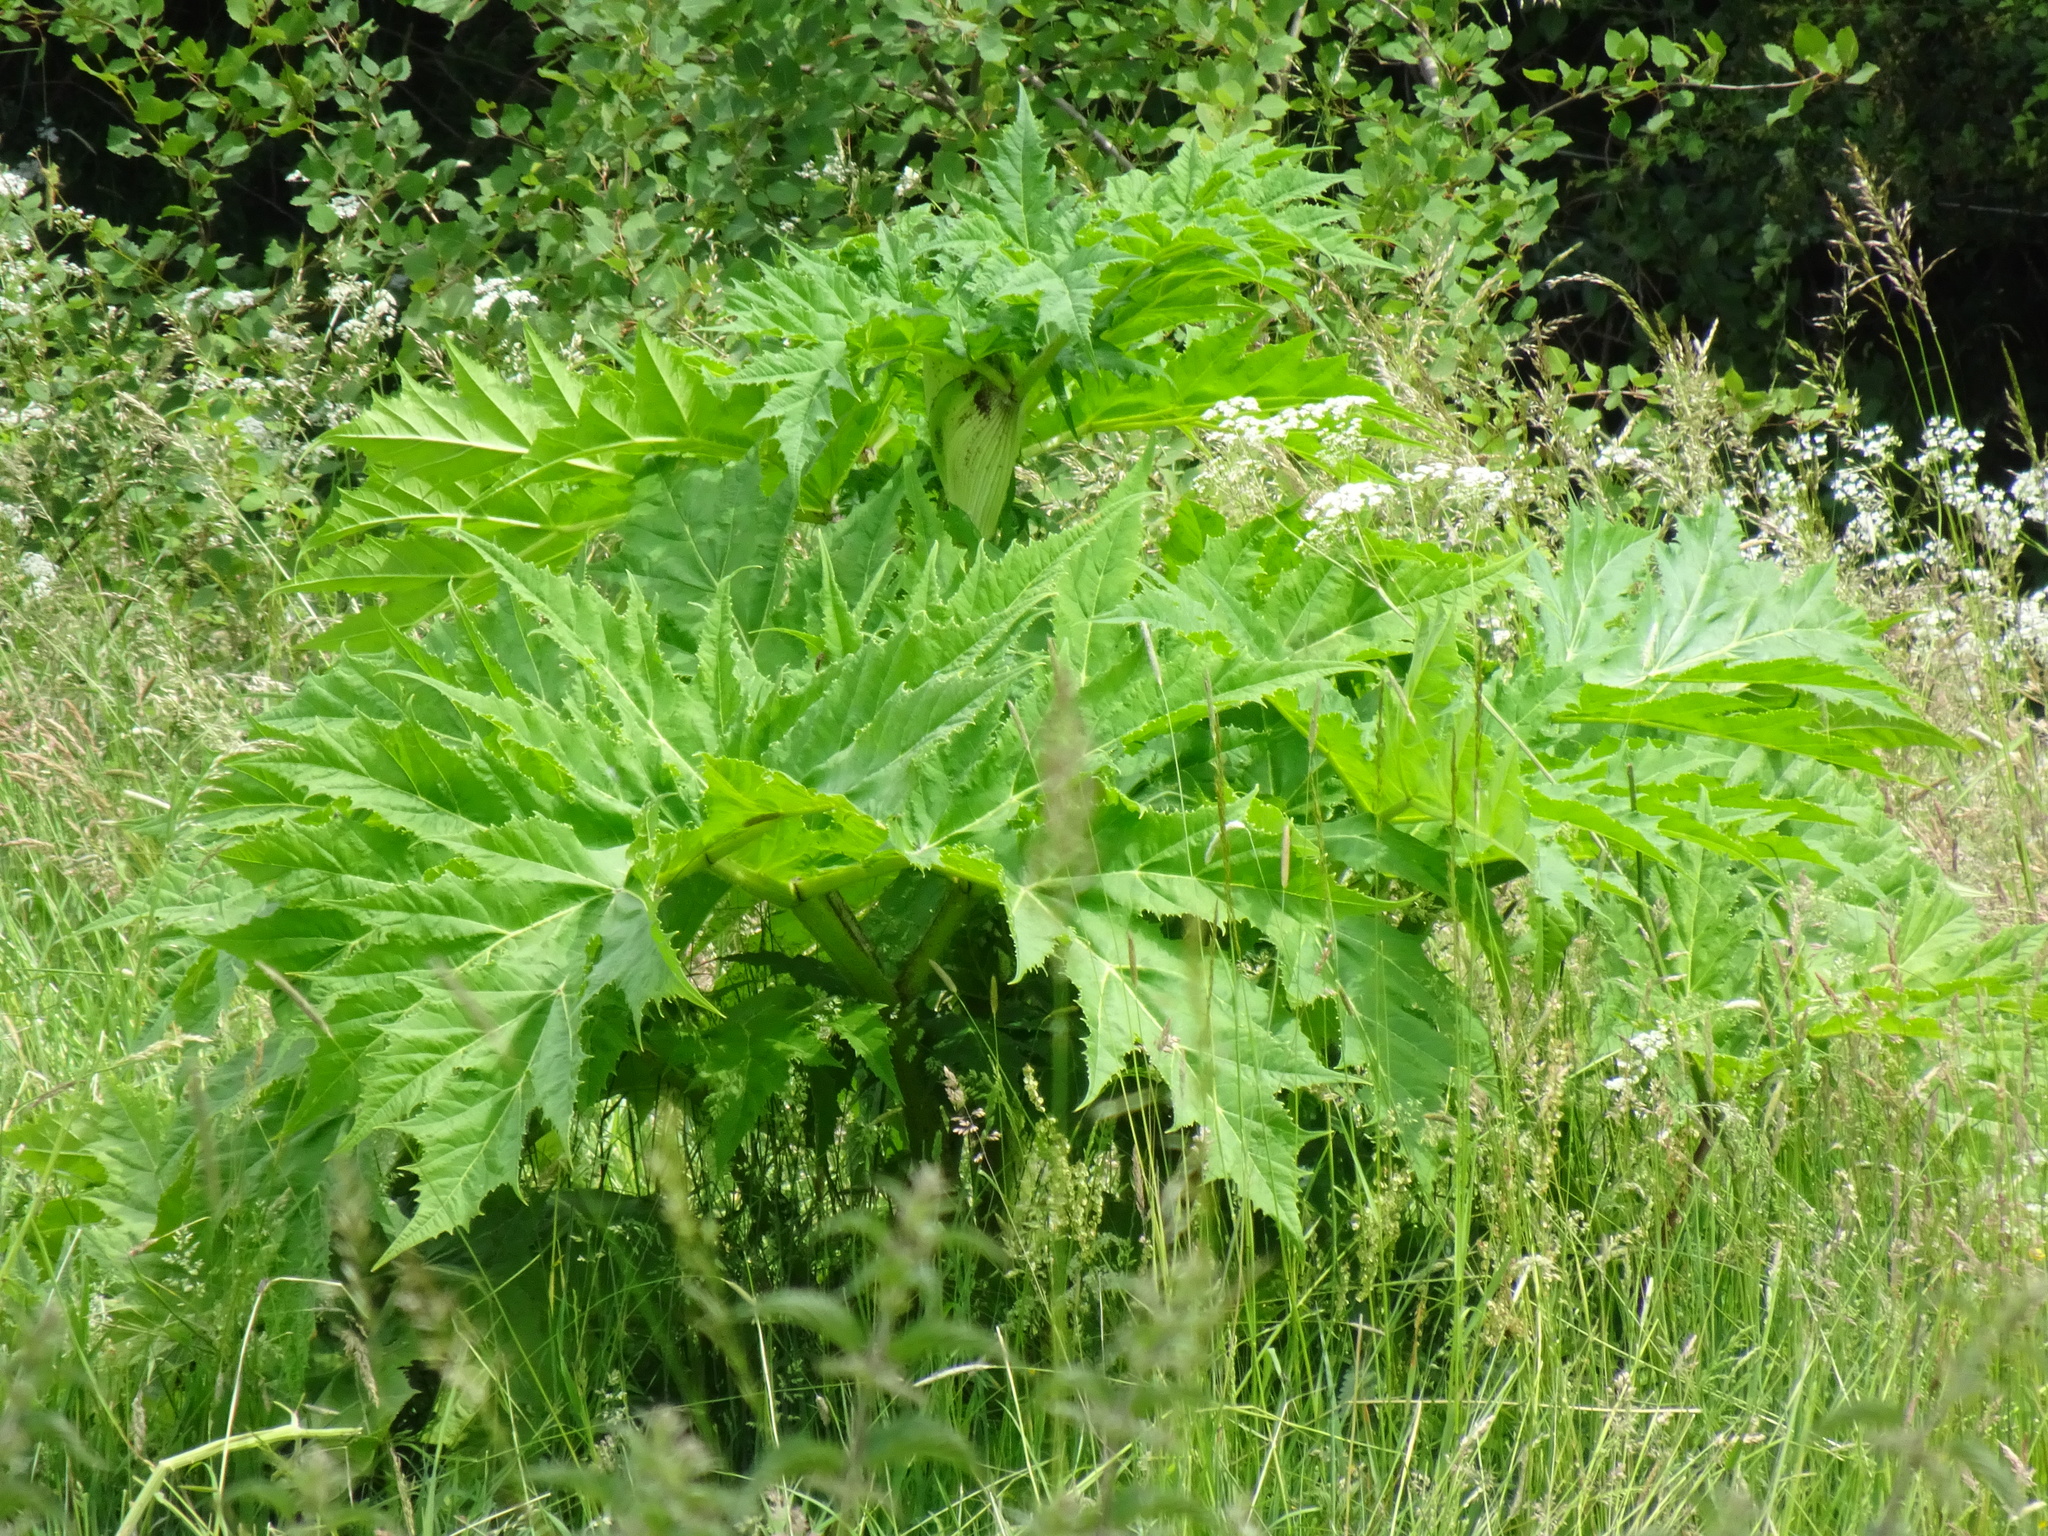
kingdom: Plantae
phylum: Tracheophyta
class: Magnoliopsida
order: Apiales
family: Apiaceae
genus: Heracleum
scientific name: Heracleum mantegazzianum
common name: Giant hogweed
